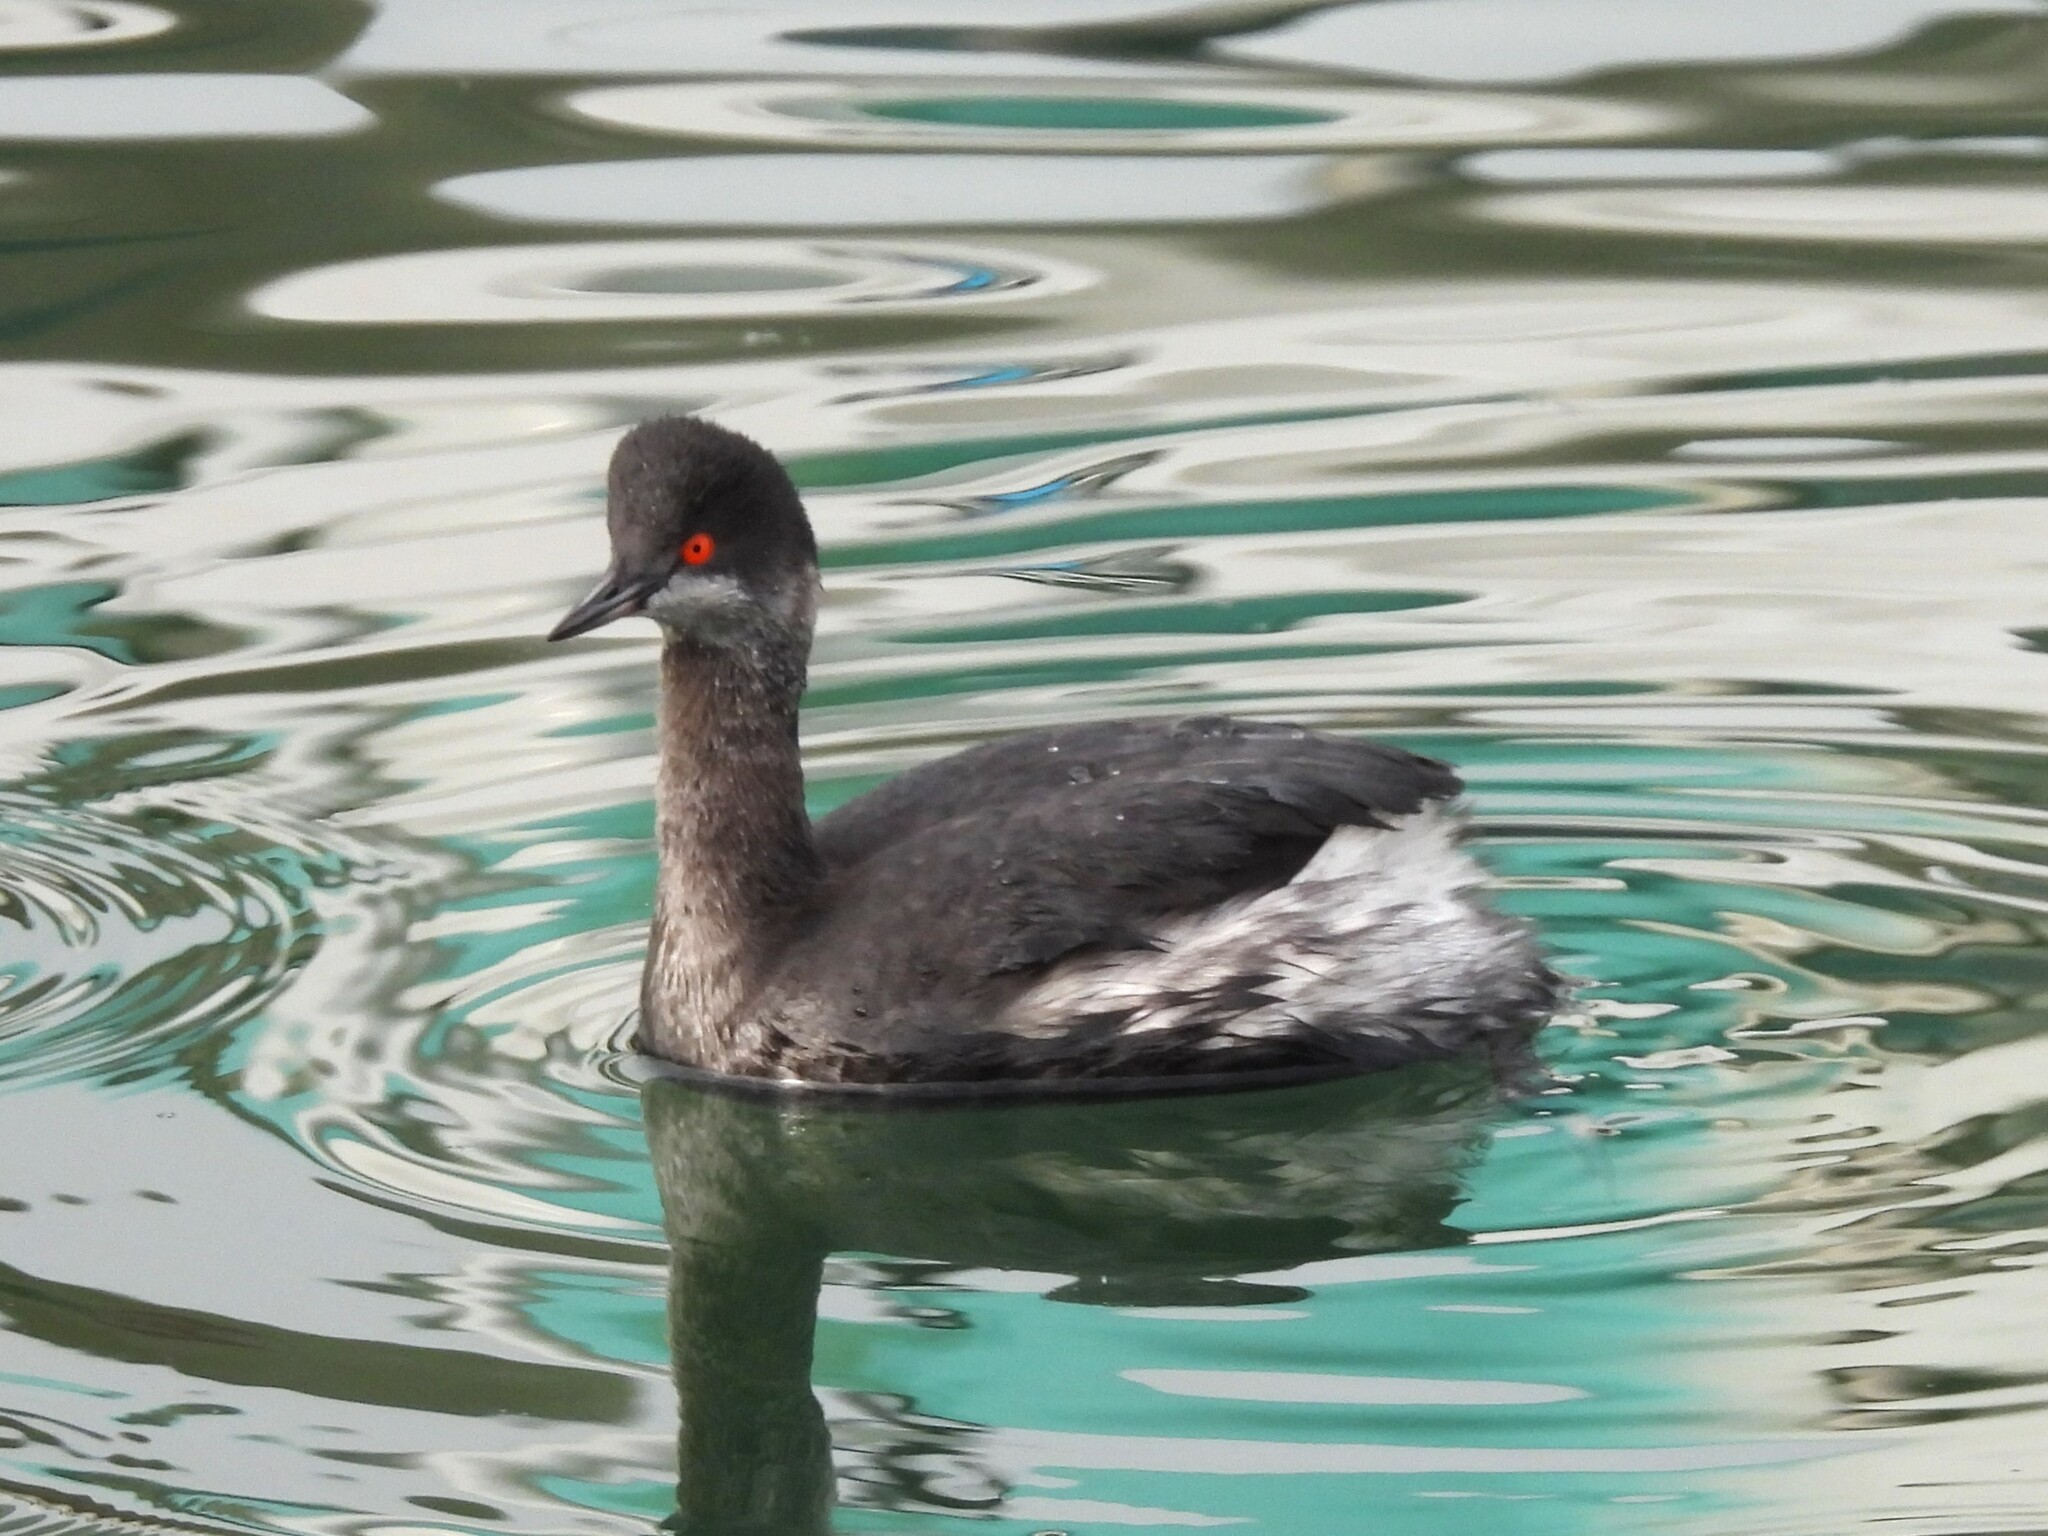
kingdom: Animalia
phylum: Chordata
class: Aves
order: Podicipediformes
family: Podicipedidae
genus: Podiceps
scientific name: Podiceps nigricollis
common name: Black-necked grebe
